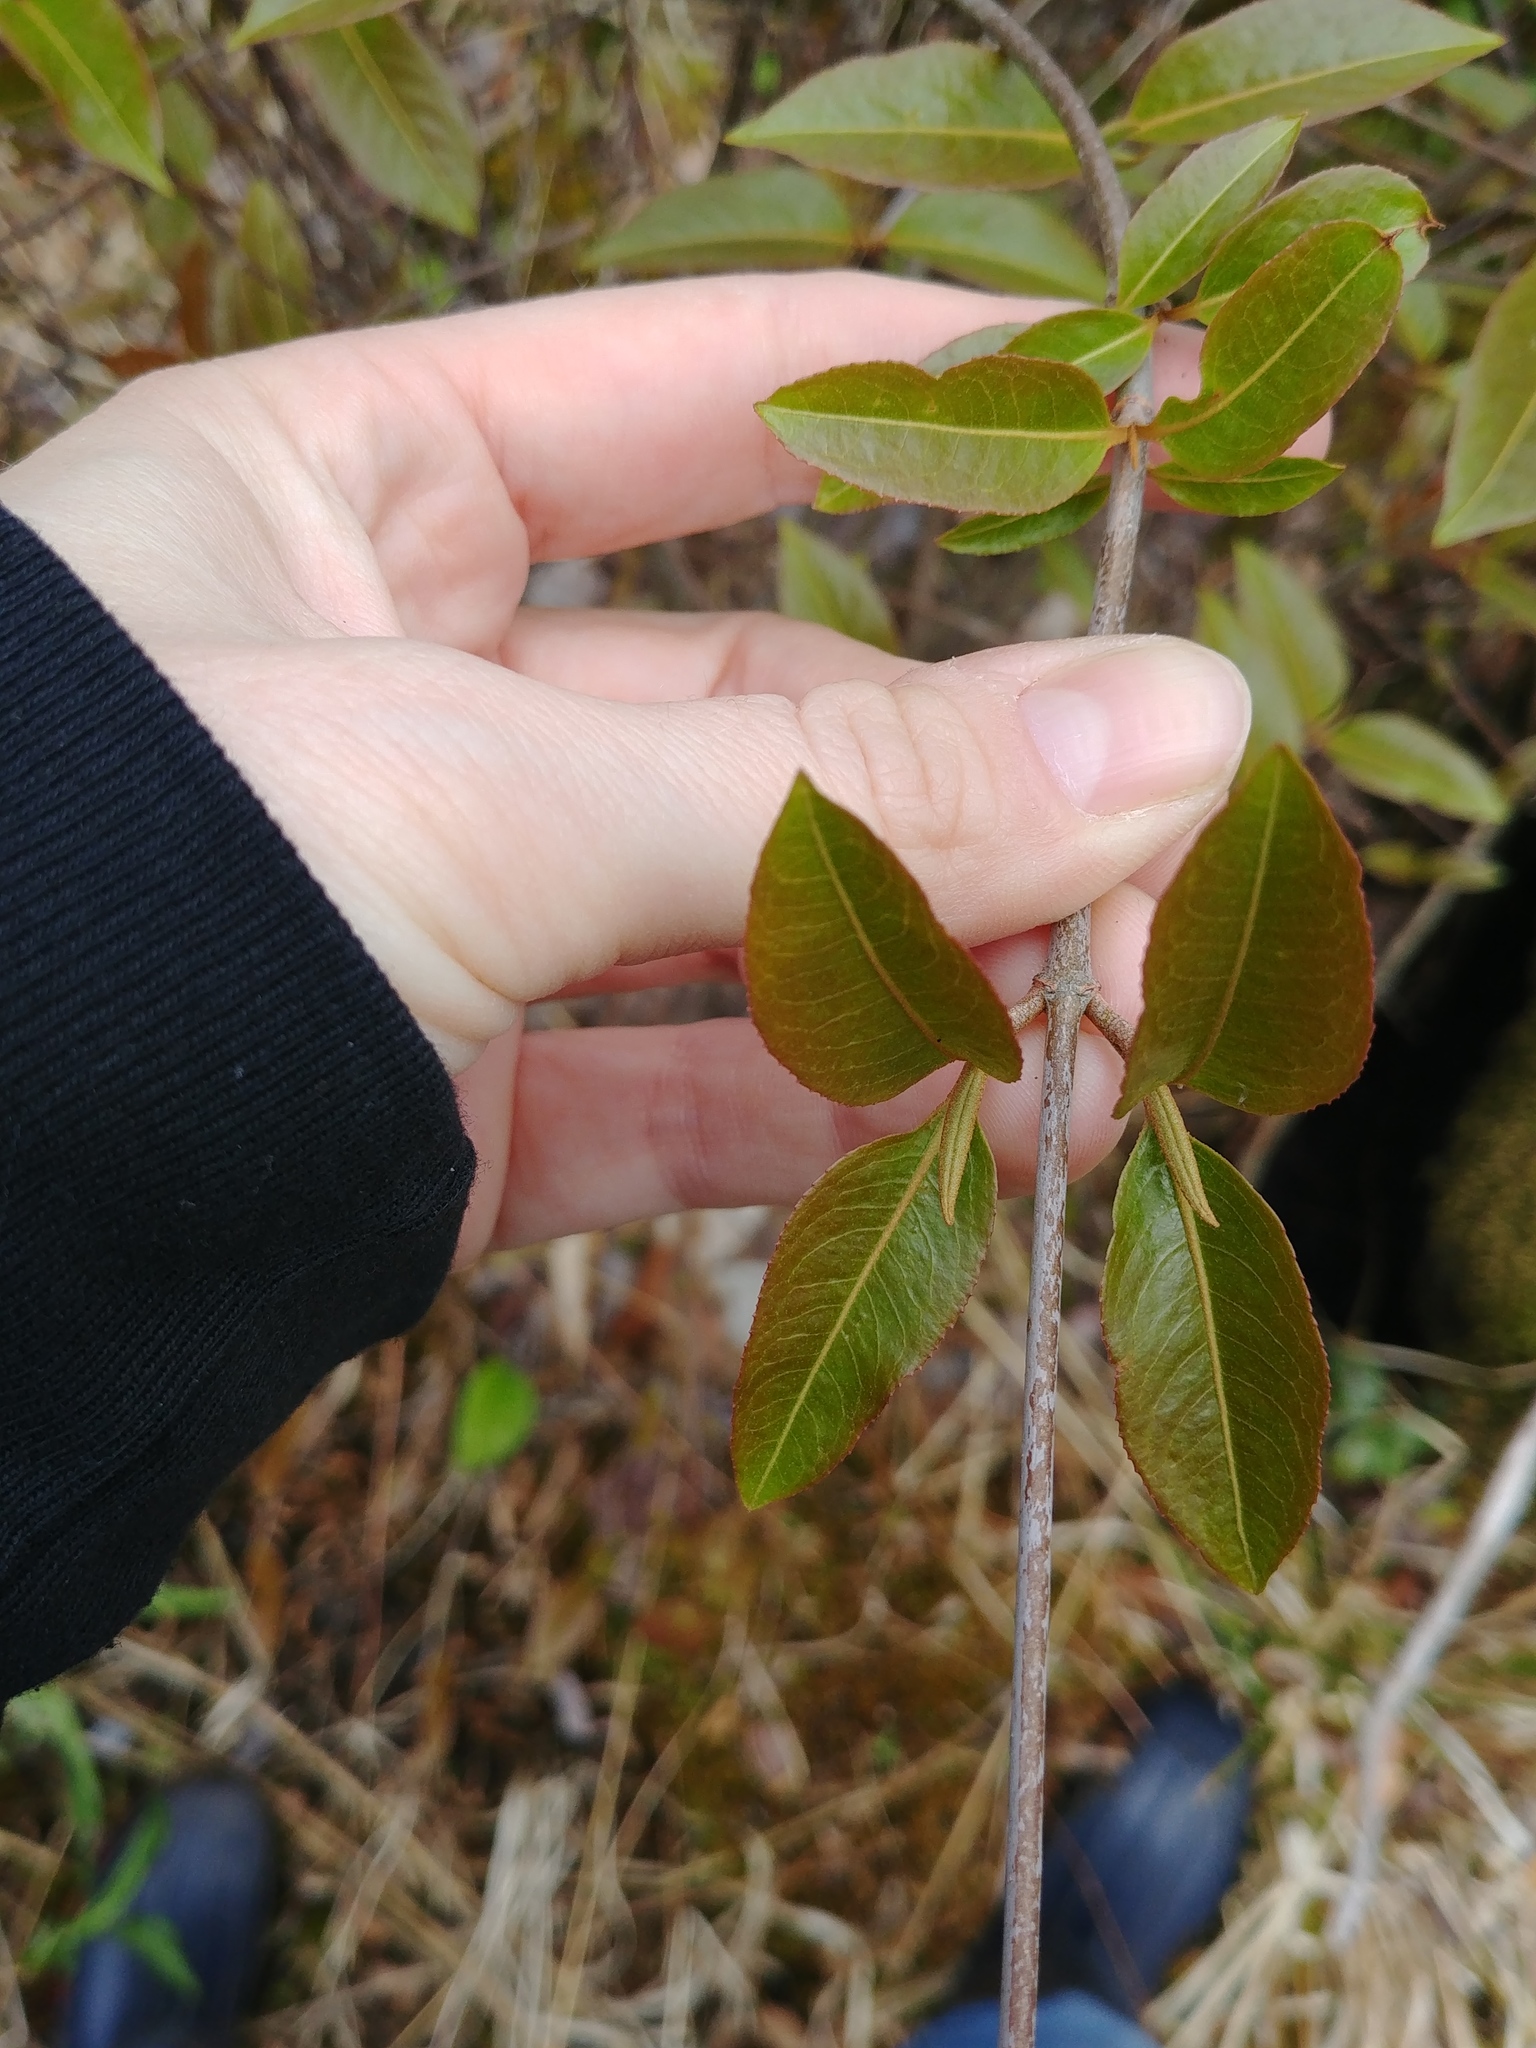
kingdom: Plantae
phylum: Tracheophyta
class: Magnoliopsida
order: Dipsacales
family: Viburnaceae
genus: Viburnum
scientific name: Viburnum cassinoides
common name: Swamp haw
